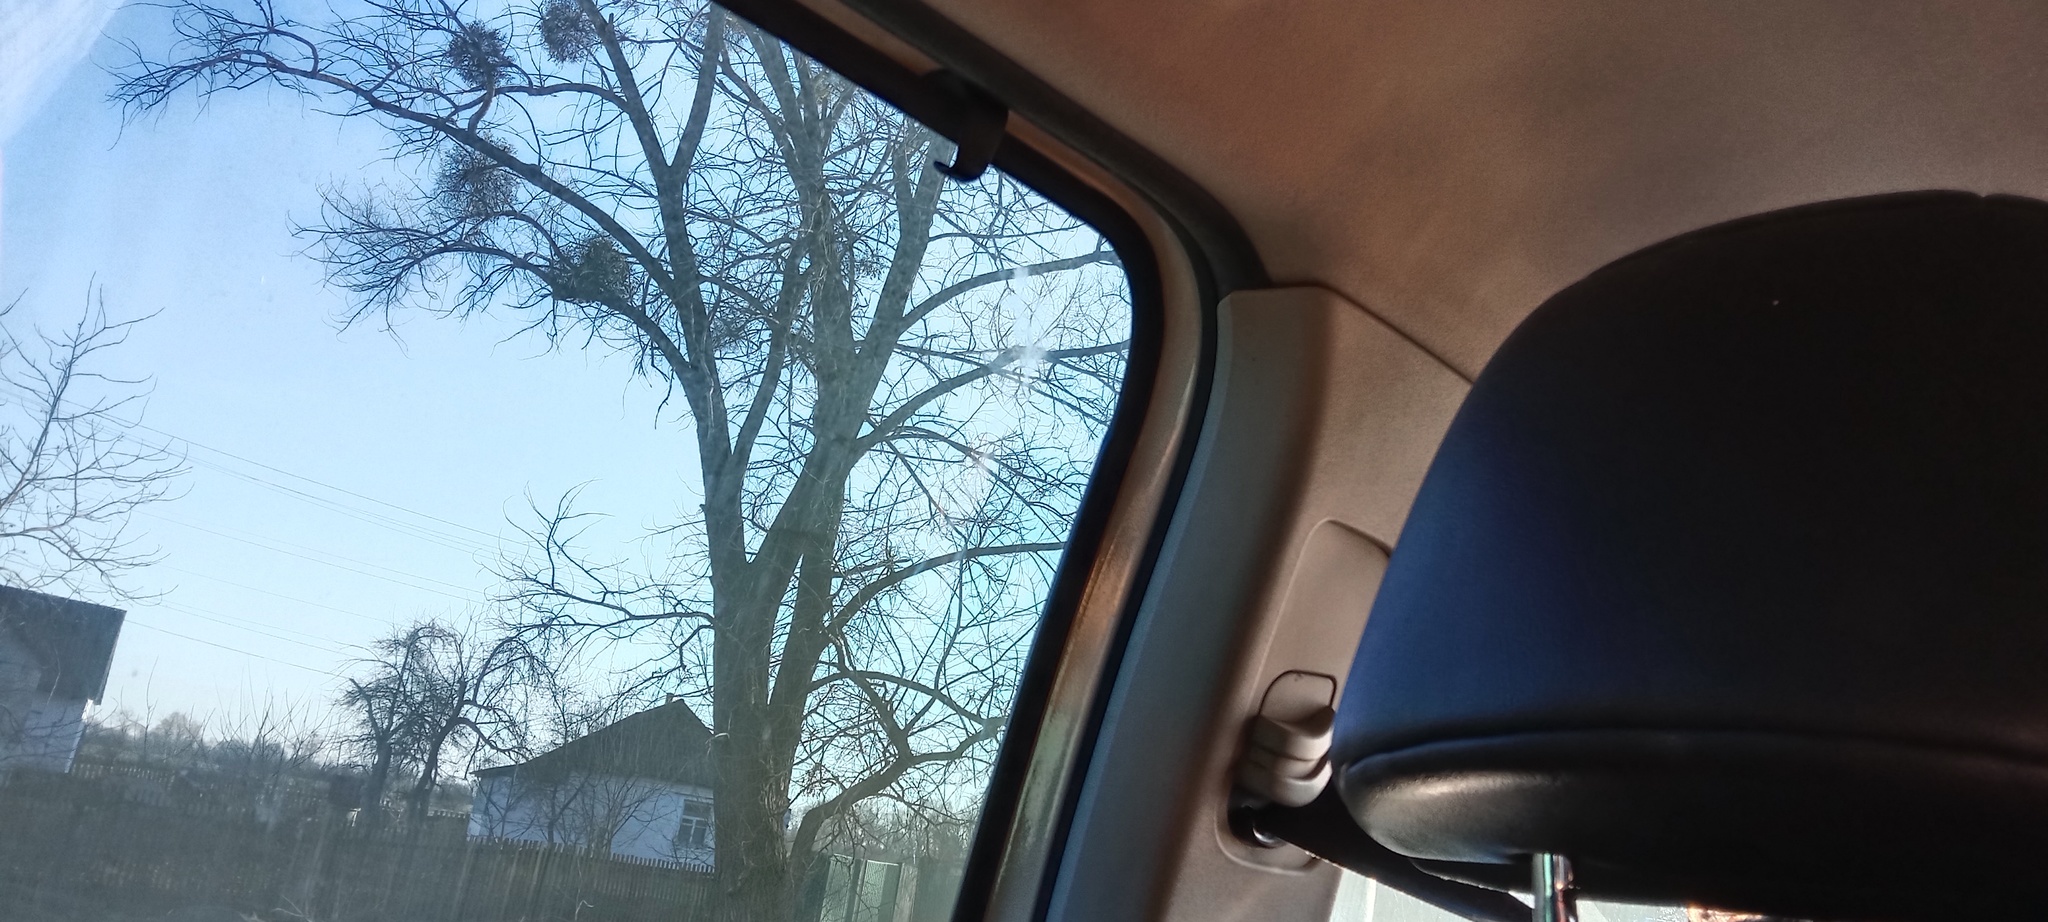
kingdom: Plantae
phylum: Tracheophyta
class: Magnoliopsida
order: Santalales
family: Viscaceae
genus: Viscum
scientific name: Viscum album
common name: Mistletoe
